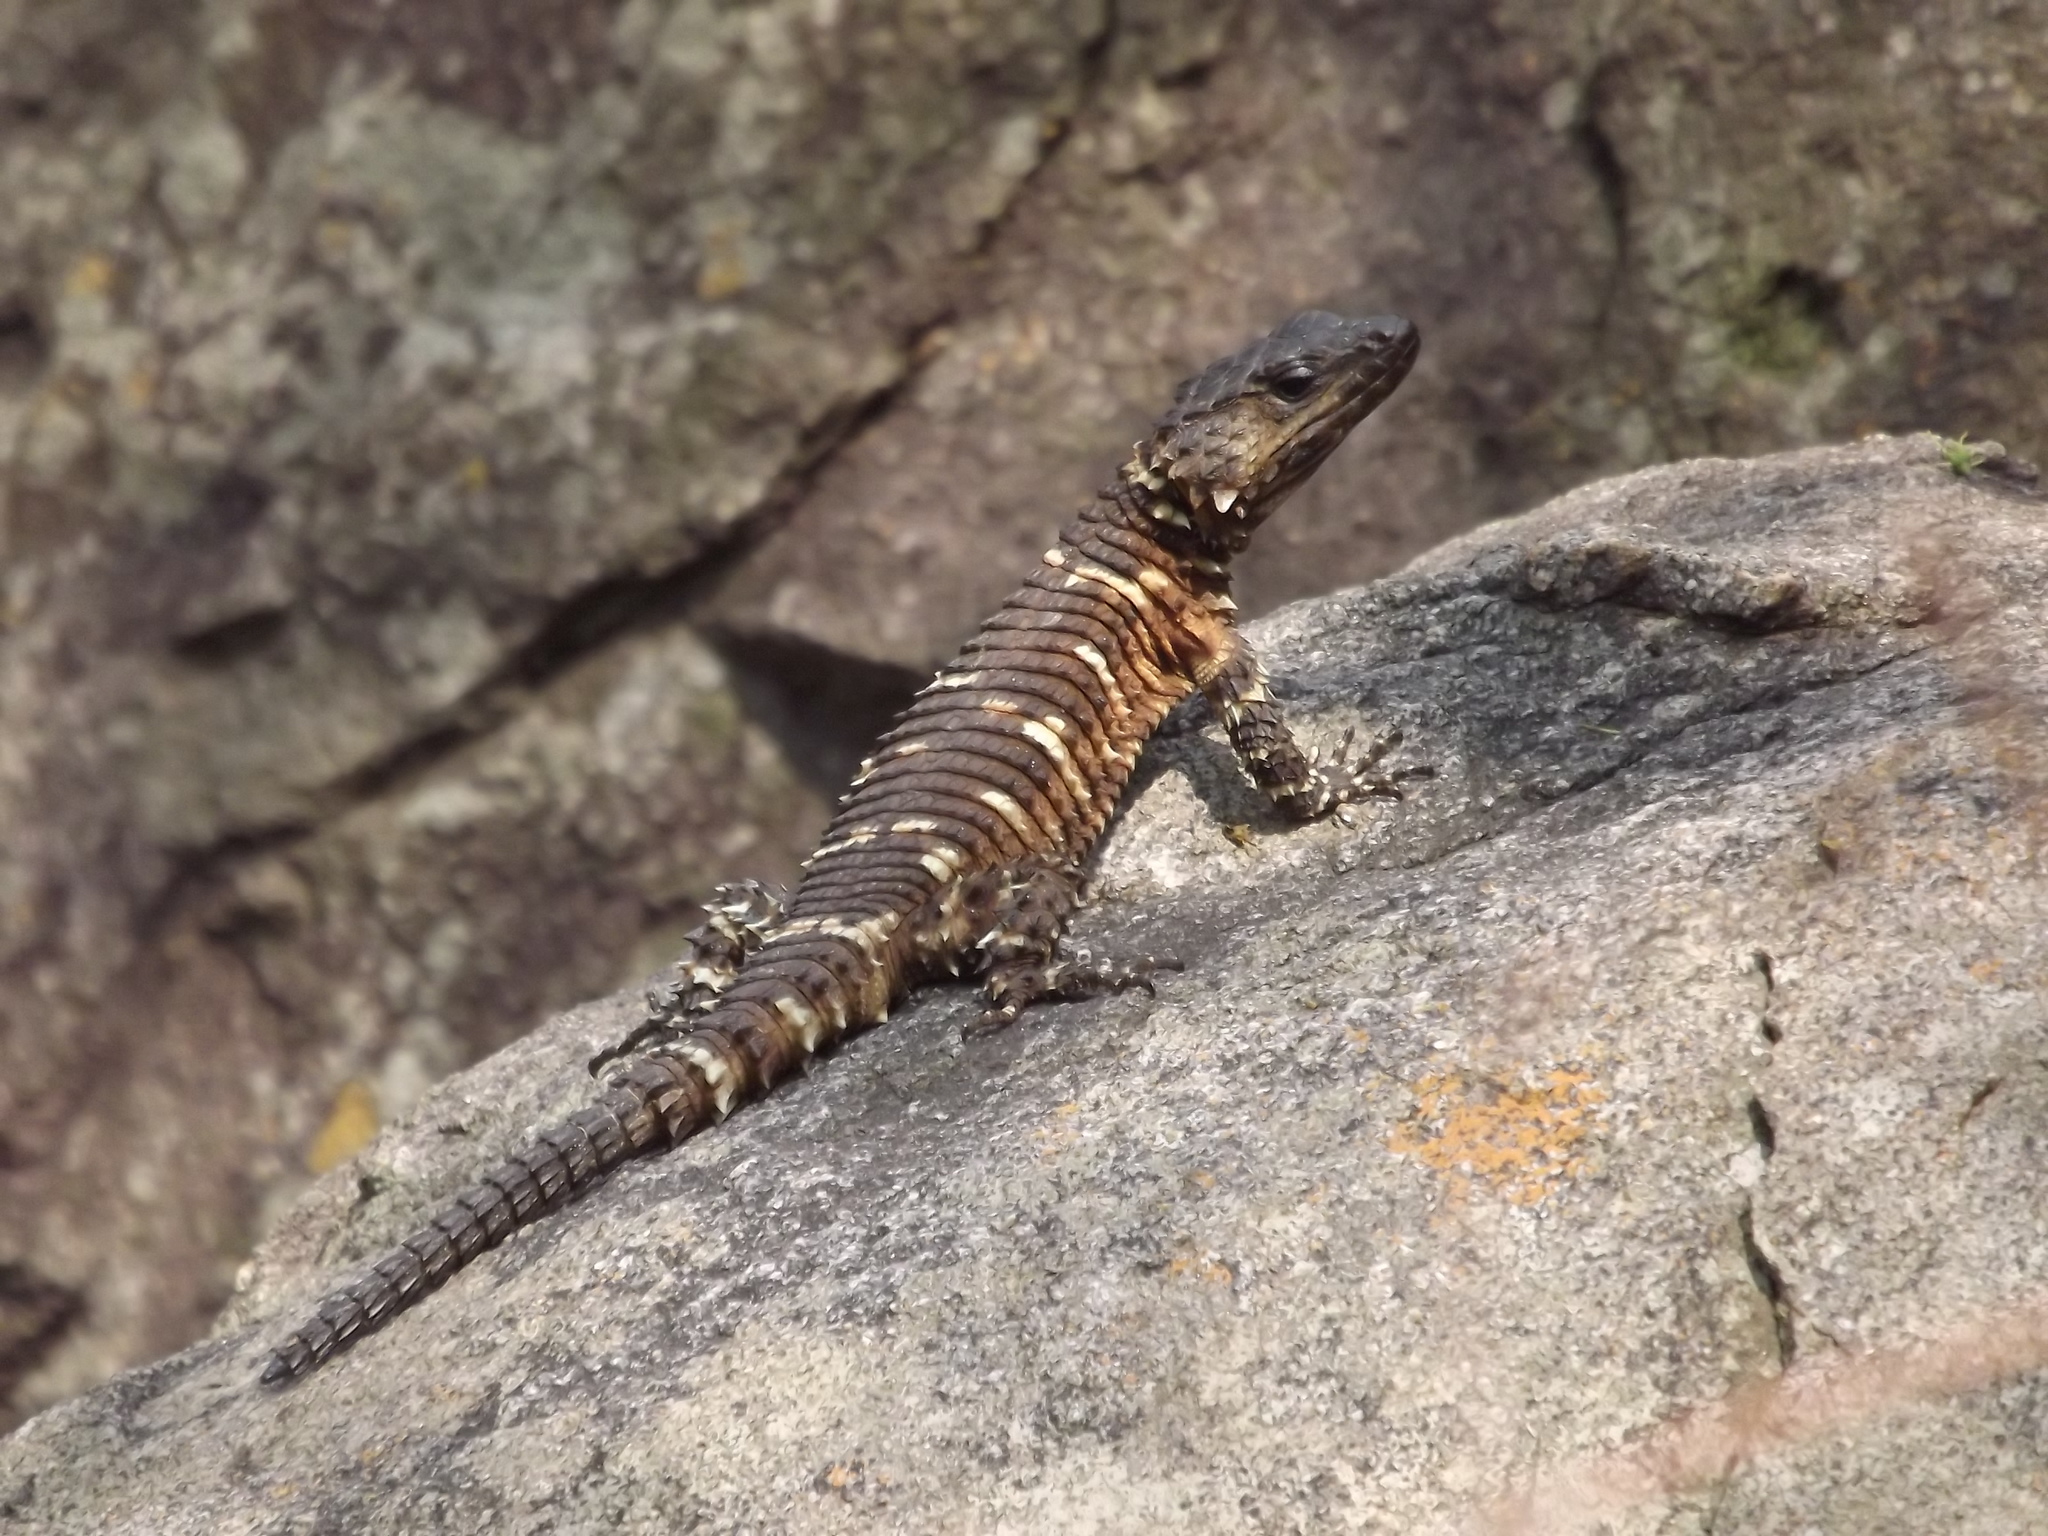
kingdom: Animalia
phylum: Chordata
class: Squamata
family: Cordylidae
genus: Smaug
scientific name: Smaug vandami
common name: Van dam's dragon lizard
